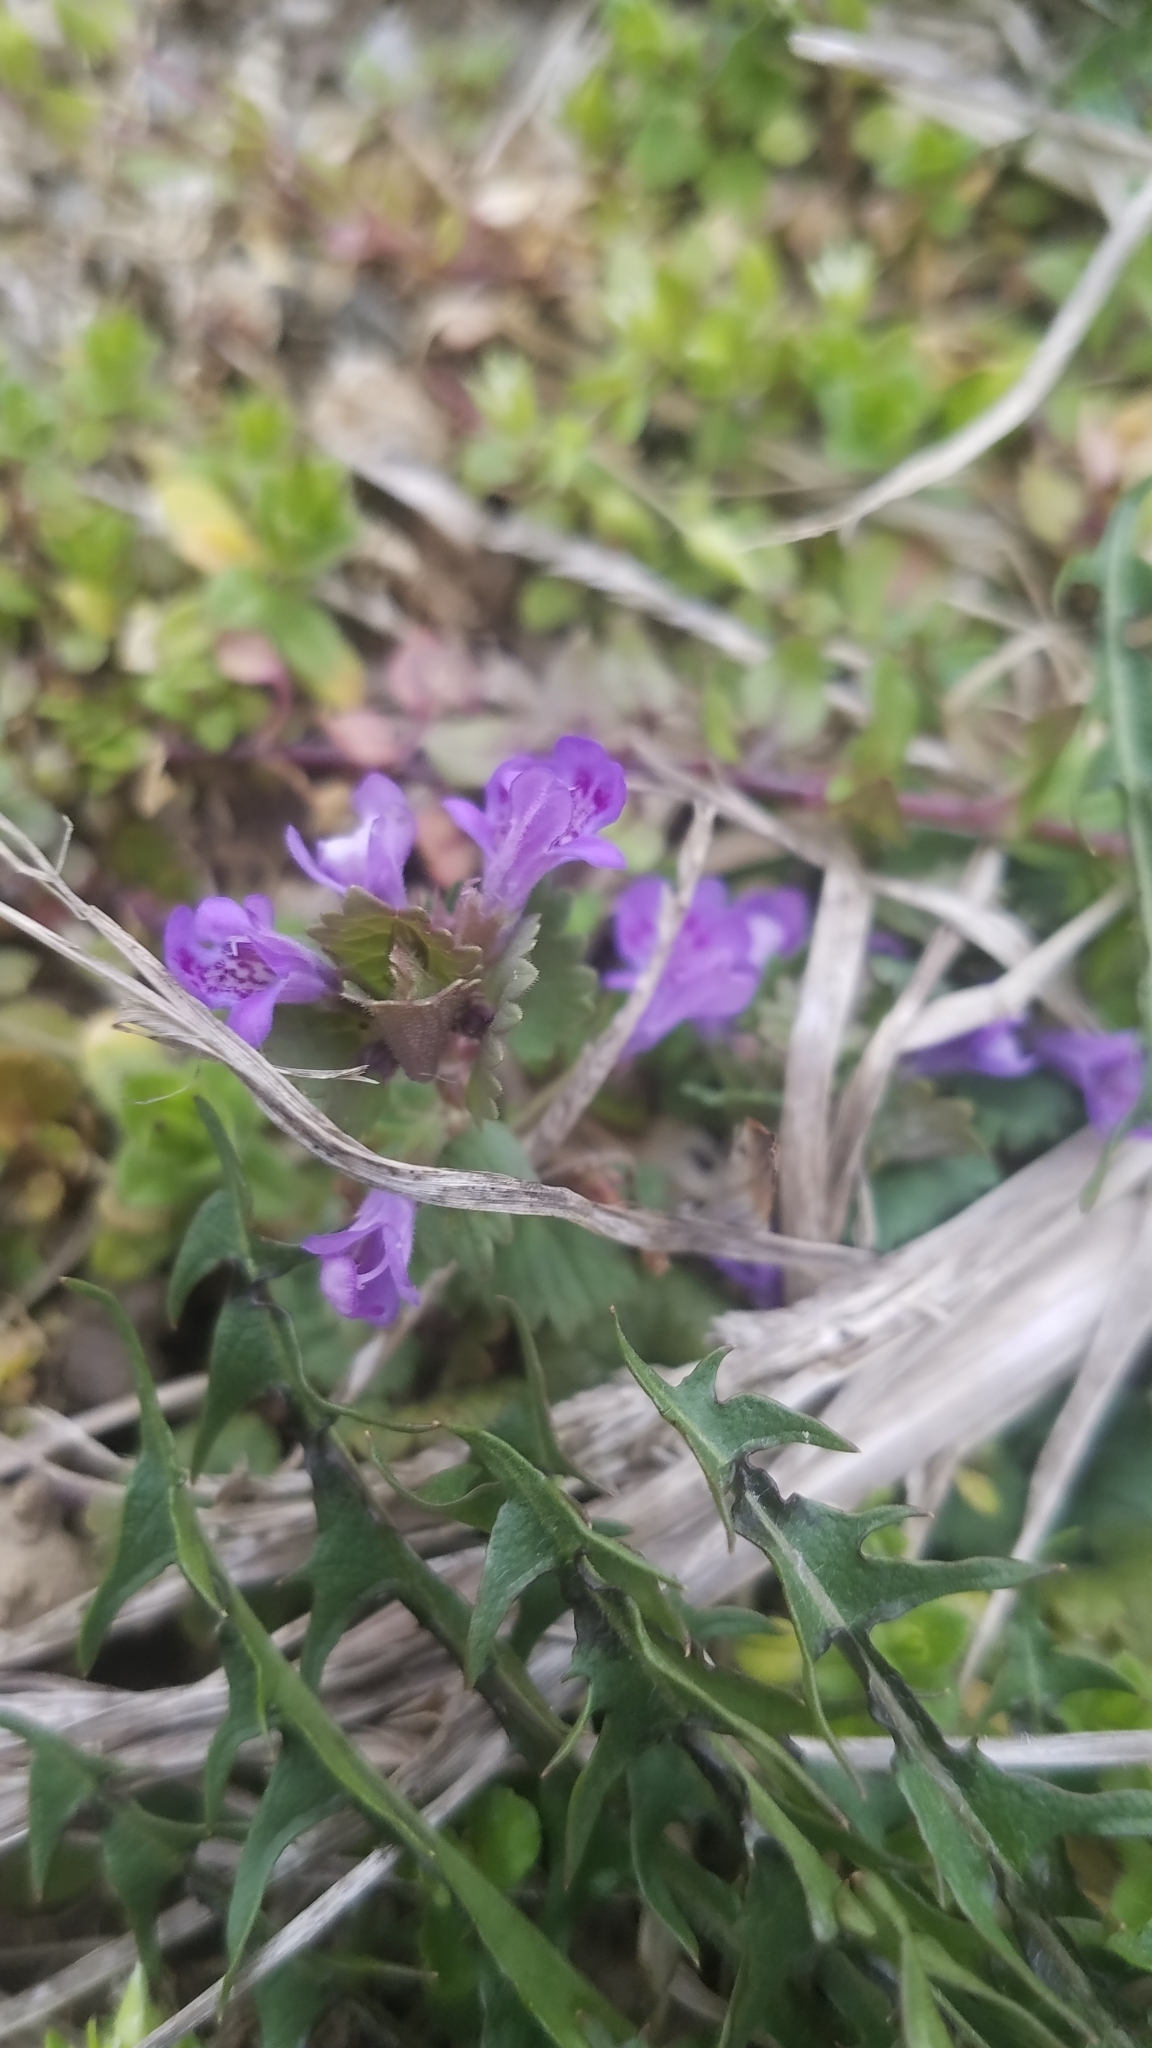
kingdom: Plantae
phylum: Tracheophyta
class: Magnoliopsida
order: Lamiales
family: Lamiaceae
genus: Glechoma
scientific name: Glechoma hederacea
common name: Ground ivy
